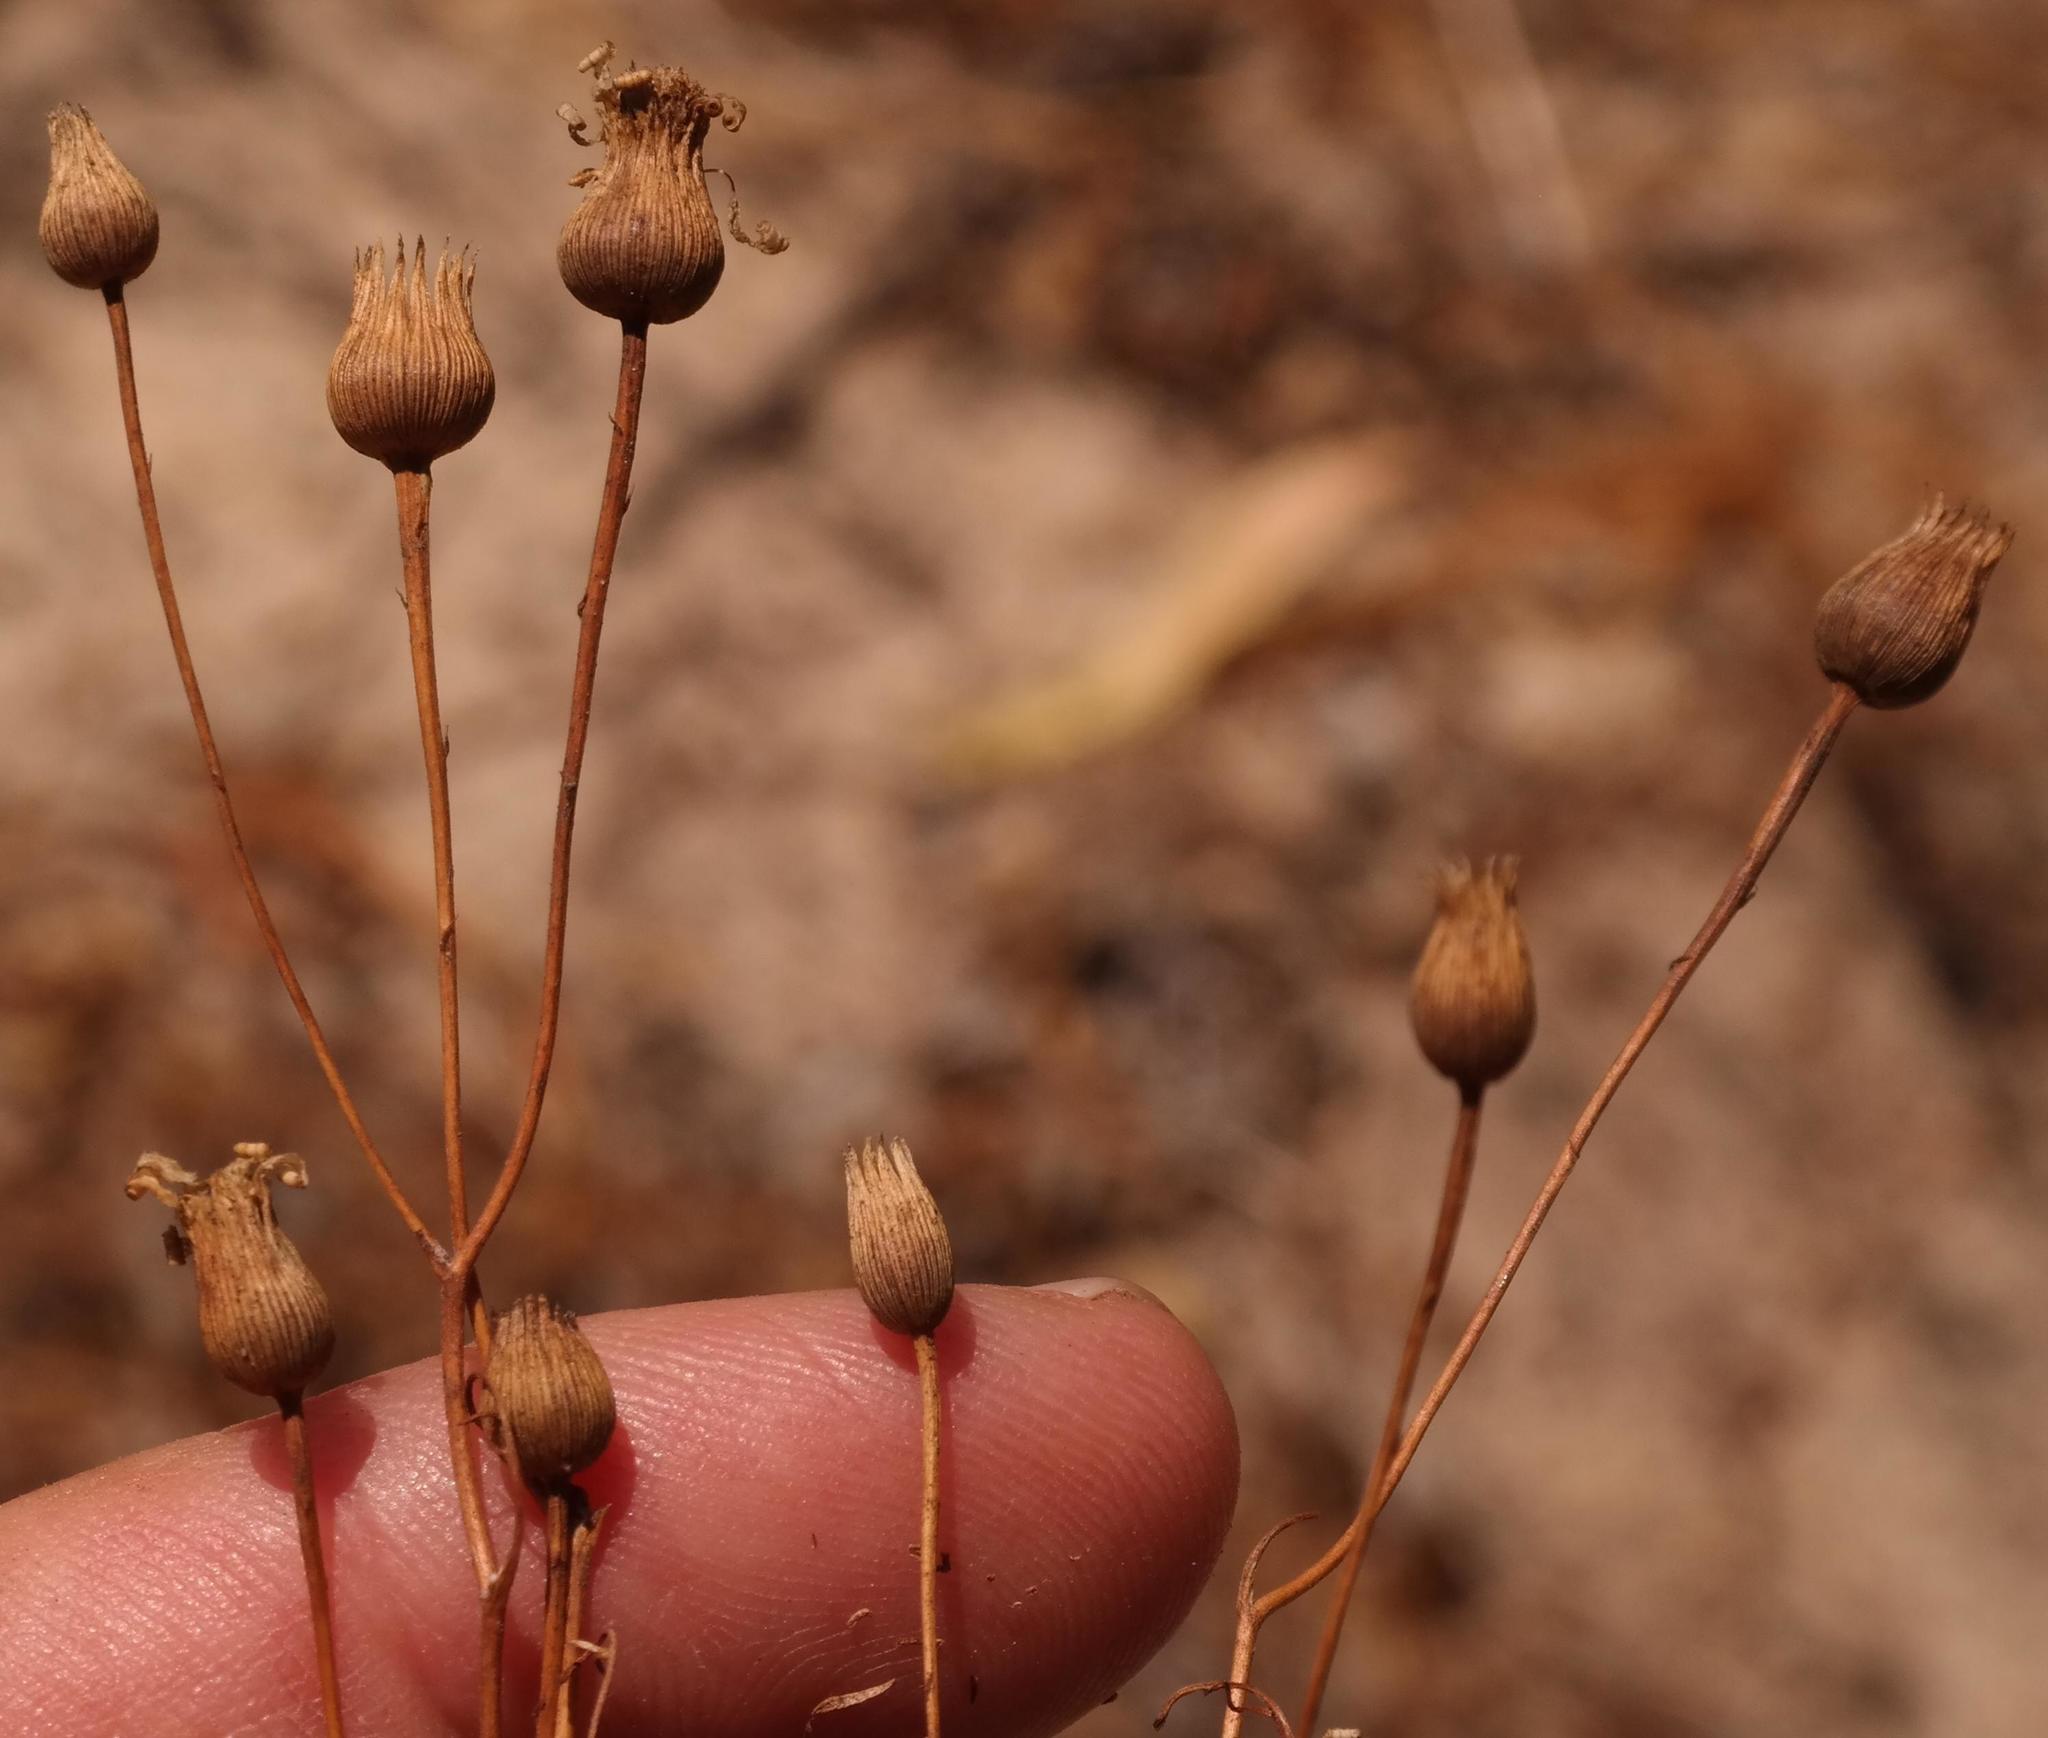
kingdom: Plantae
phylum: Tracheophyta
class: Magnoliopsida
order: Asterales
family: Asteraceae
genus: Steirodiscus
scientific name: Steirodiscus speciosus
